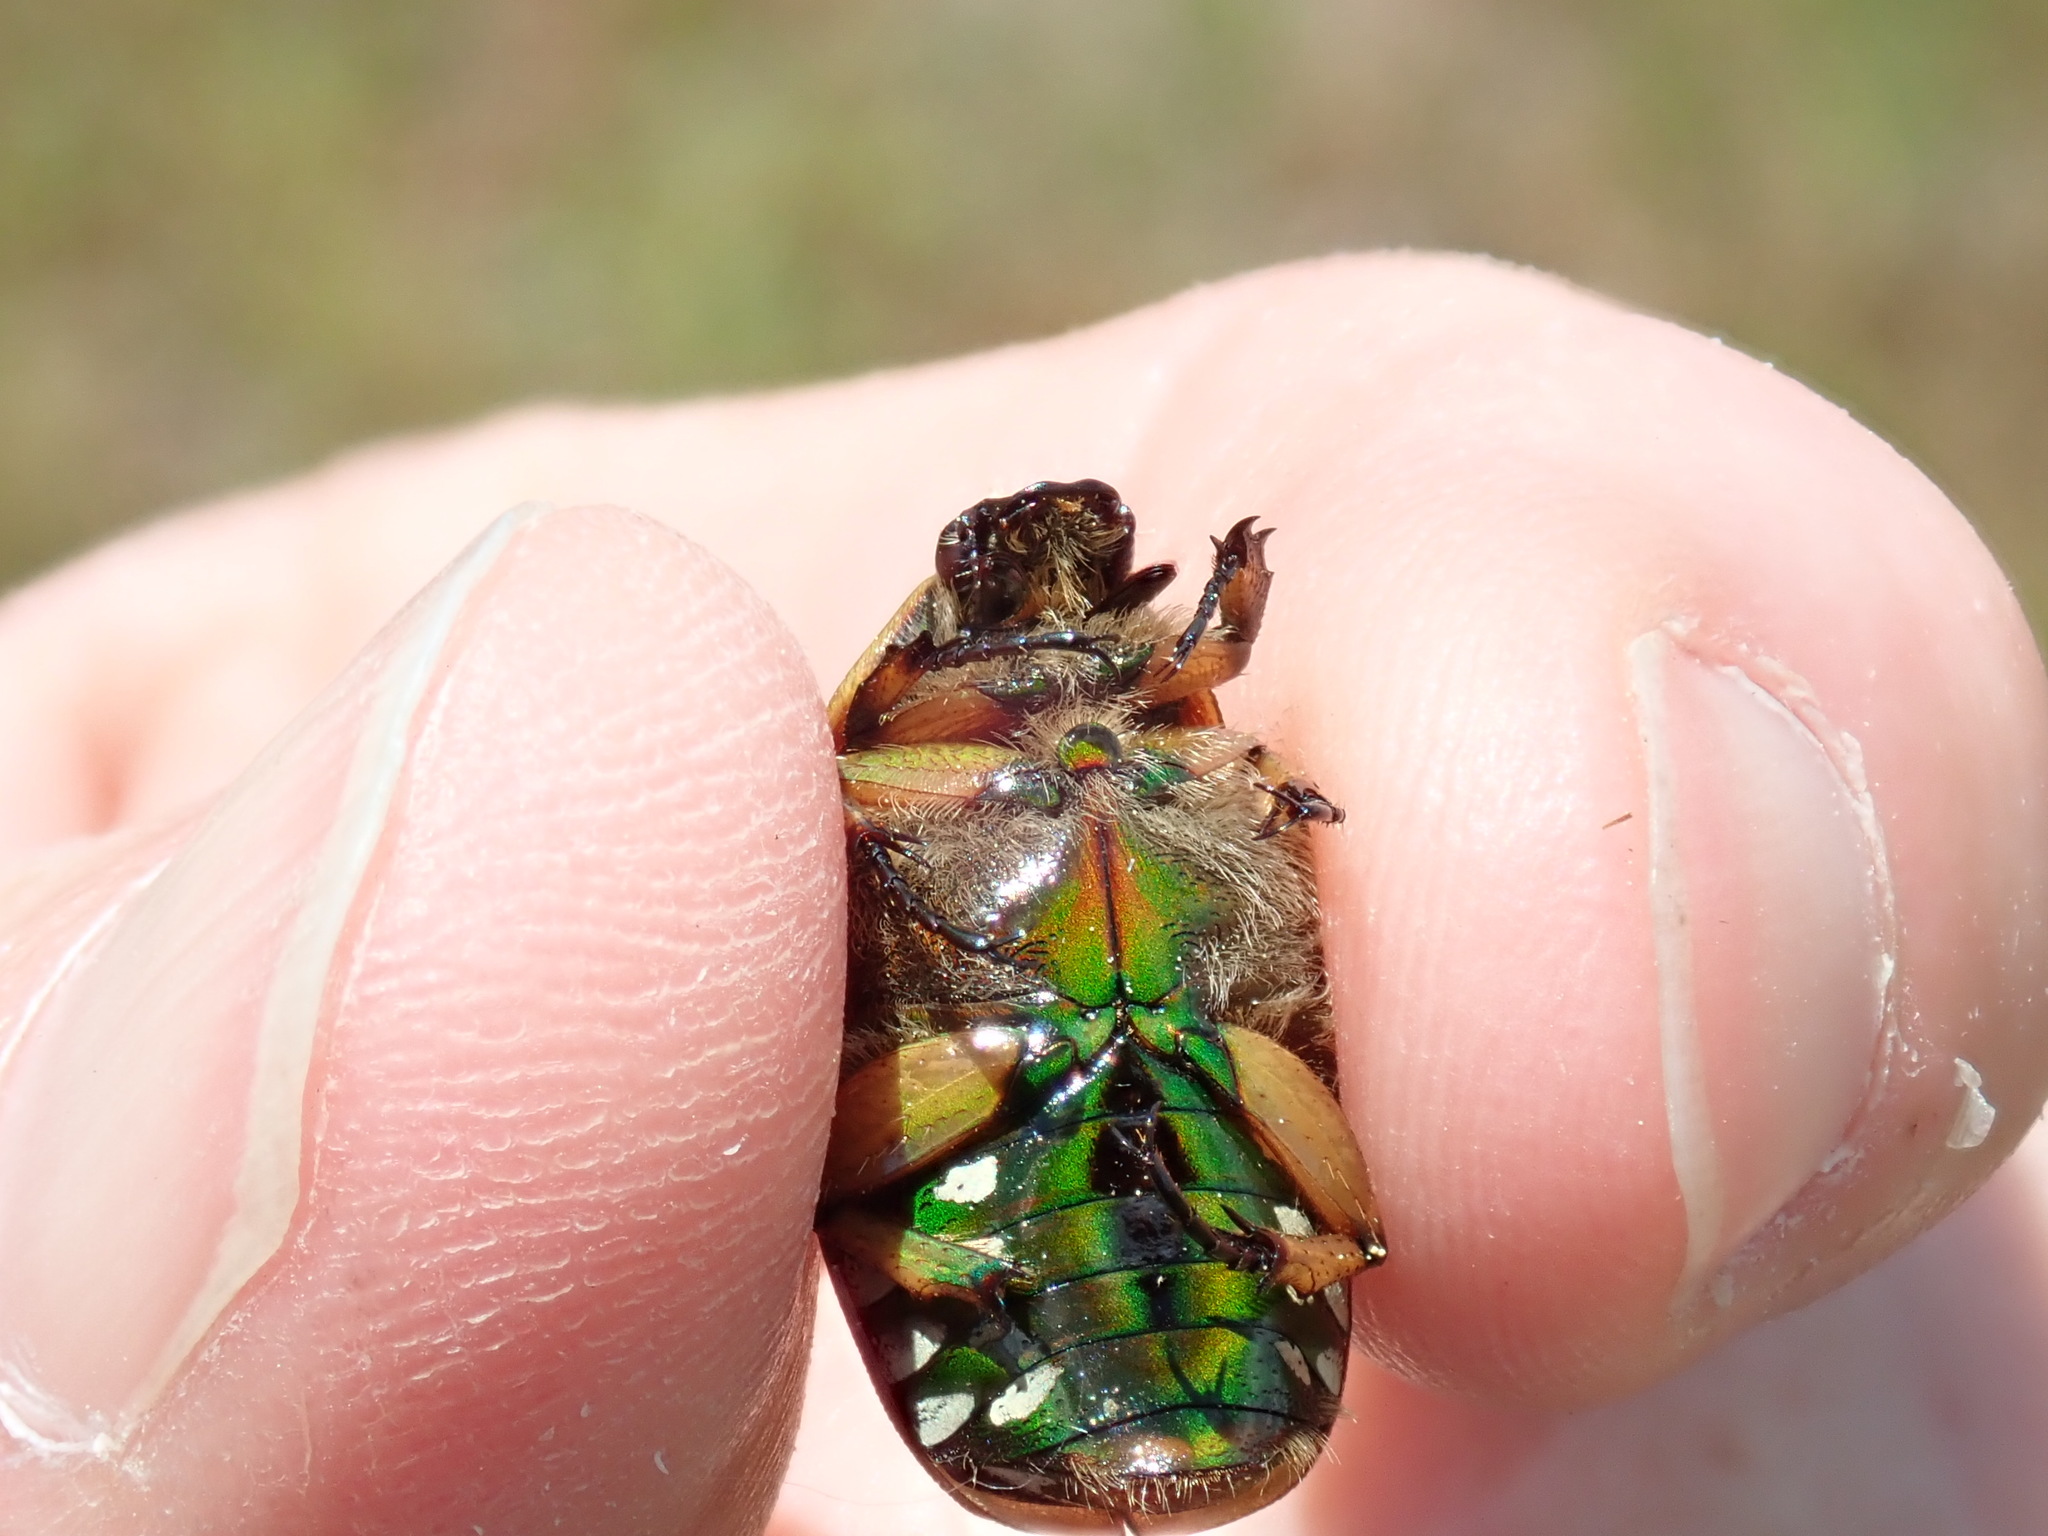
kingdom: Animalia
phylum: Arthropoda
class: Insecta
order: Coleoptera
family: Scarabaeidae
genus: Euphoria
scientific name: Euphoria fulgida
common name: Emerald euphoria
